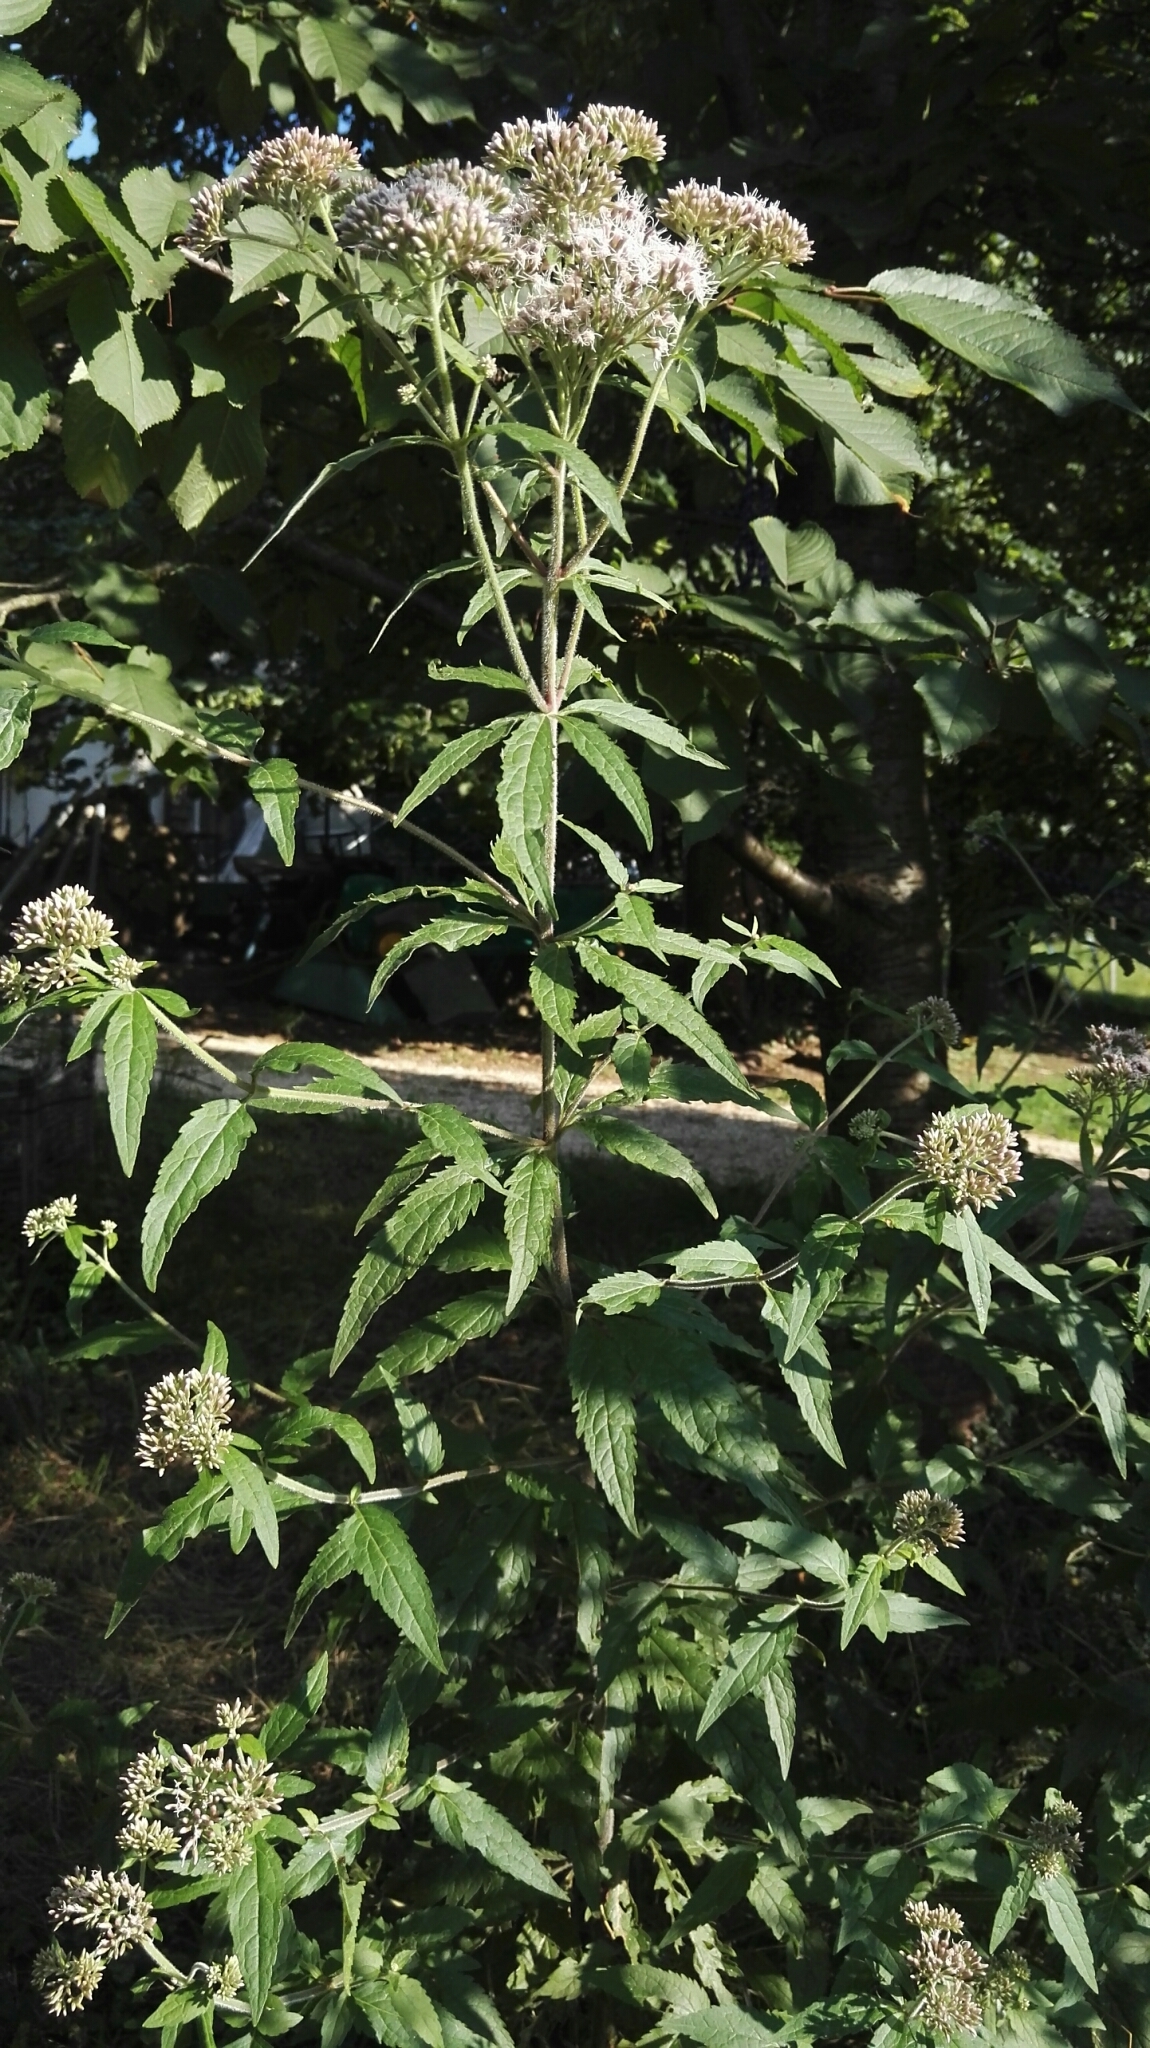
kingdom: Plantae
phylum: Tracheophyta
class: Magnoliopsida
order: Asterales
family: Asteraceae
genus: Eupatorium
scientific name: Eupatorium cannabinum
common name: Hemp-agrimony
